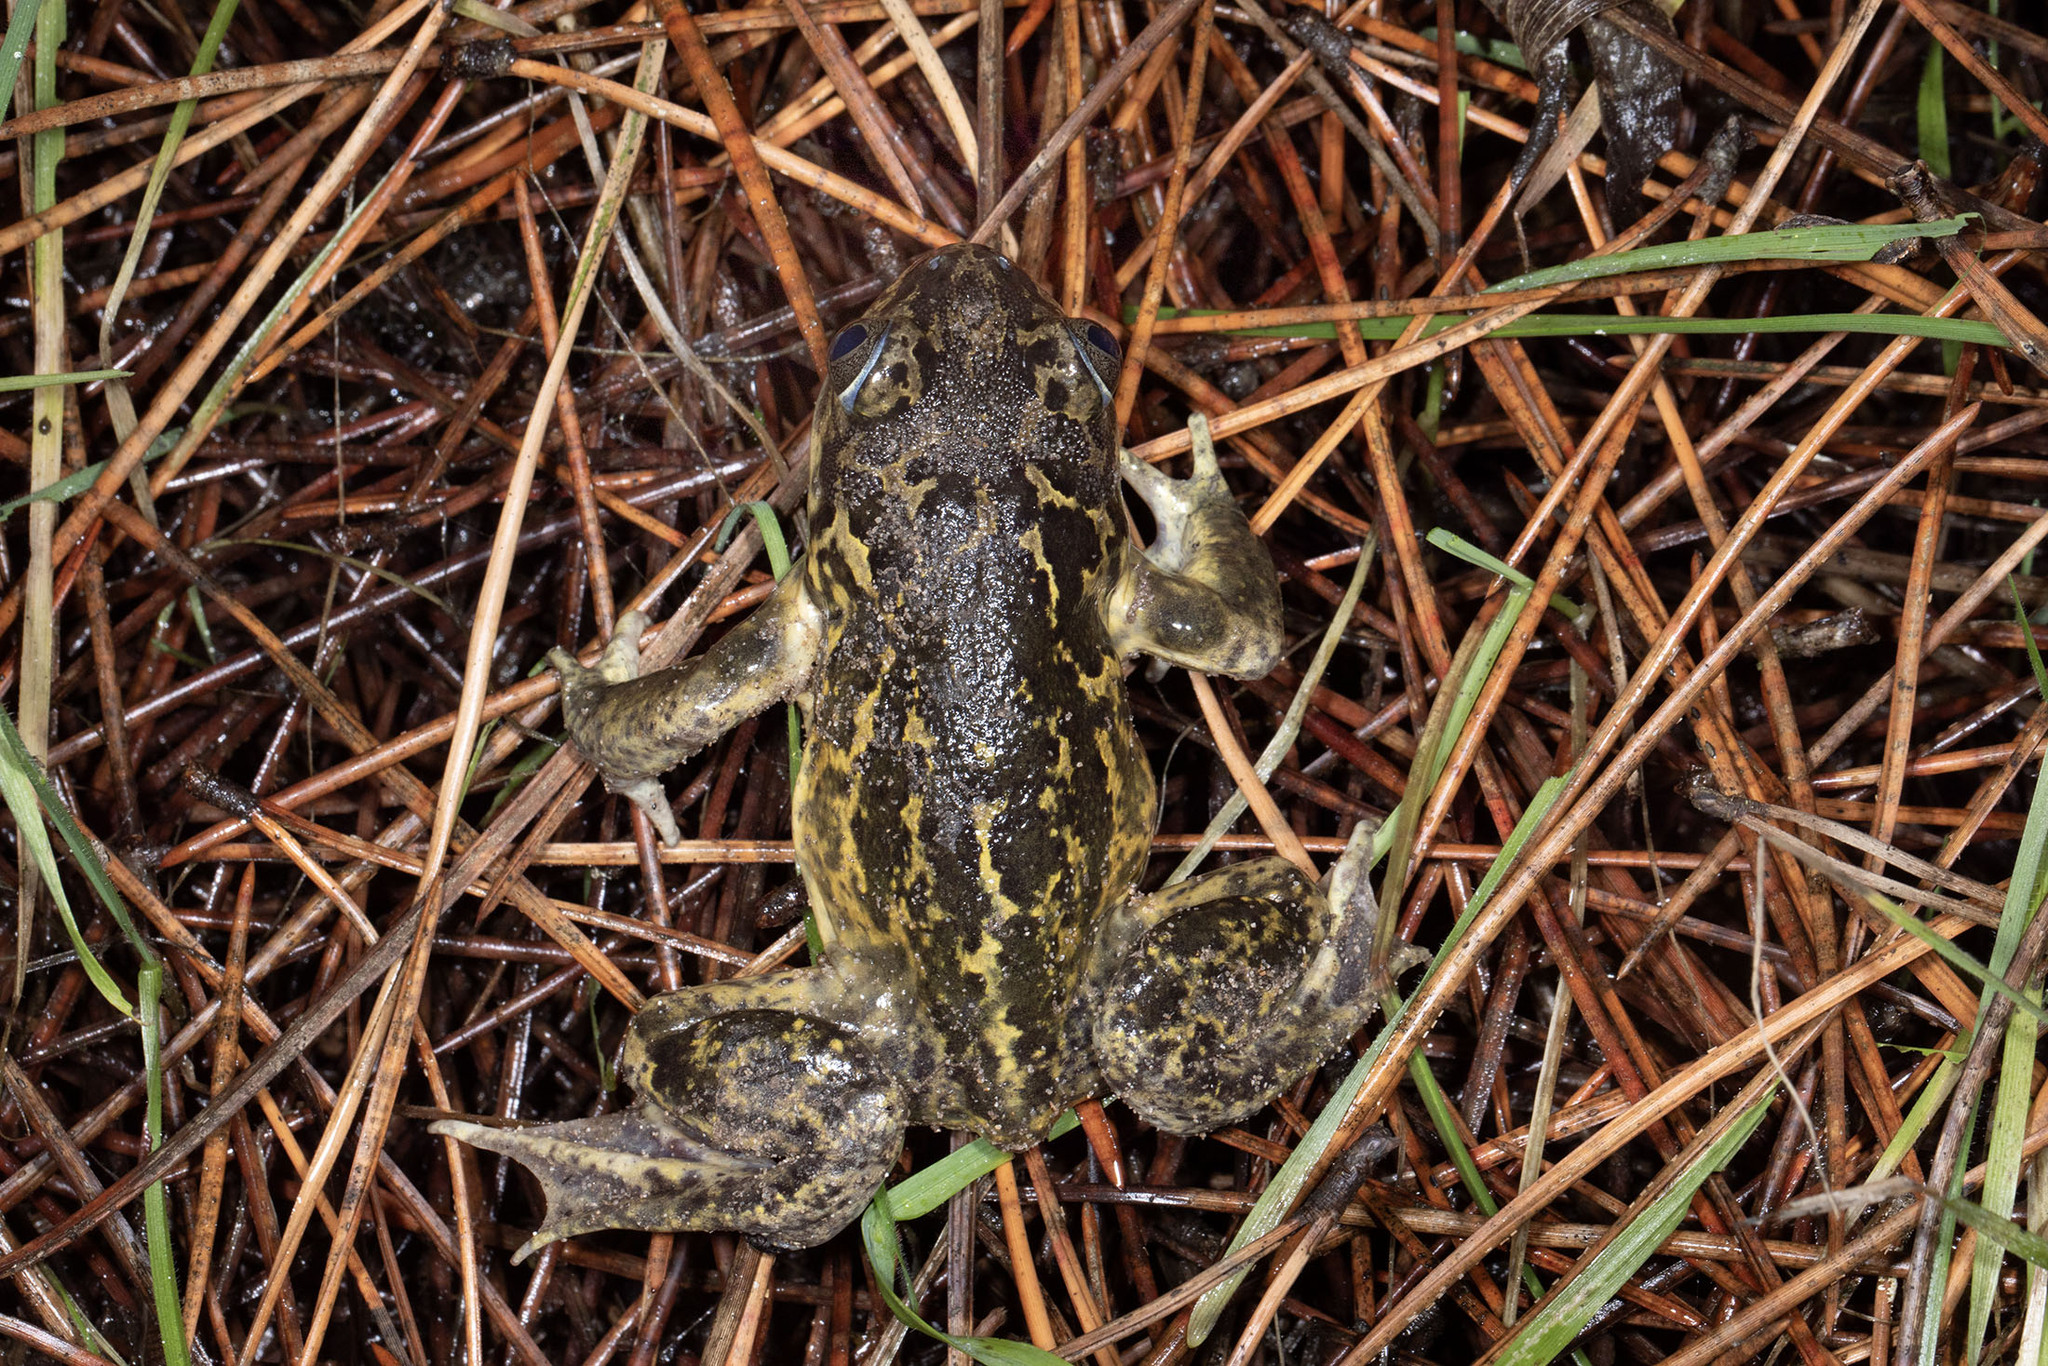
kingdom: Animalia
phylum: Chordata
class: Amphibia
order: Anura
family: Pelobatidae
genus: Pelobates
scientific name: Pelobates cultripes
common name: Western spadefoot
